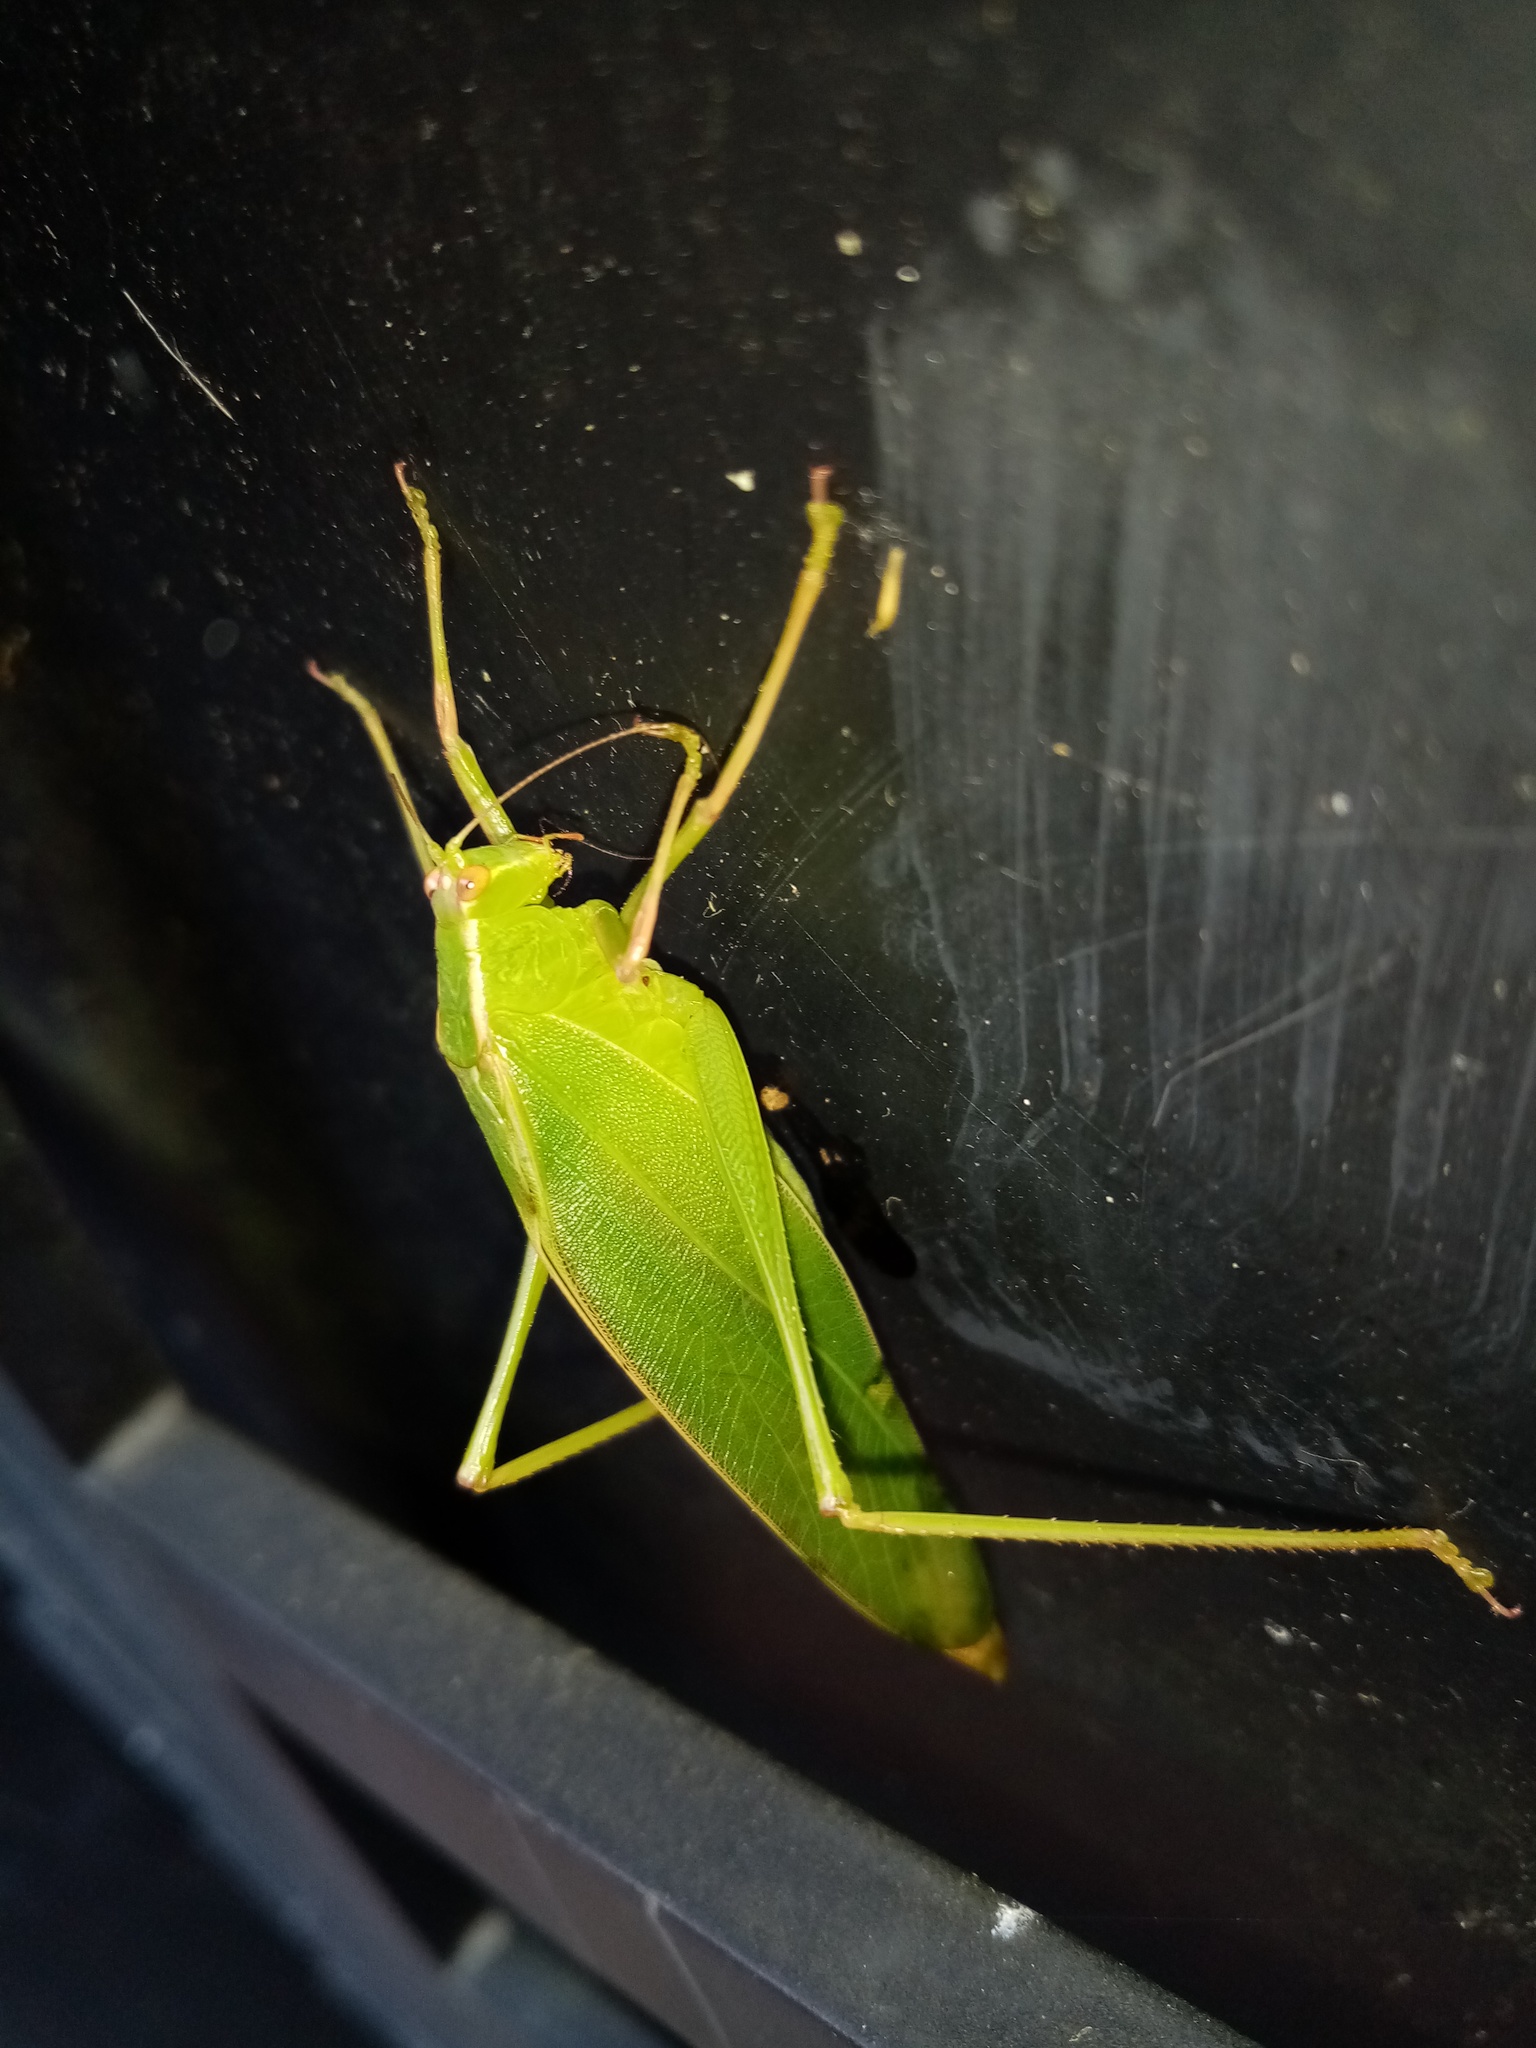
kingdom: Animalia
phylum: Arthropoda
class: Insecta
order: Orthoptera
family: Tettigoniidae
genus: Caedicia
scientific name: Caedicia simplex
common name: Common garden katydid
